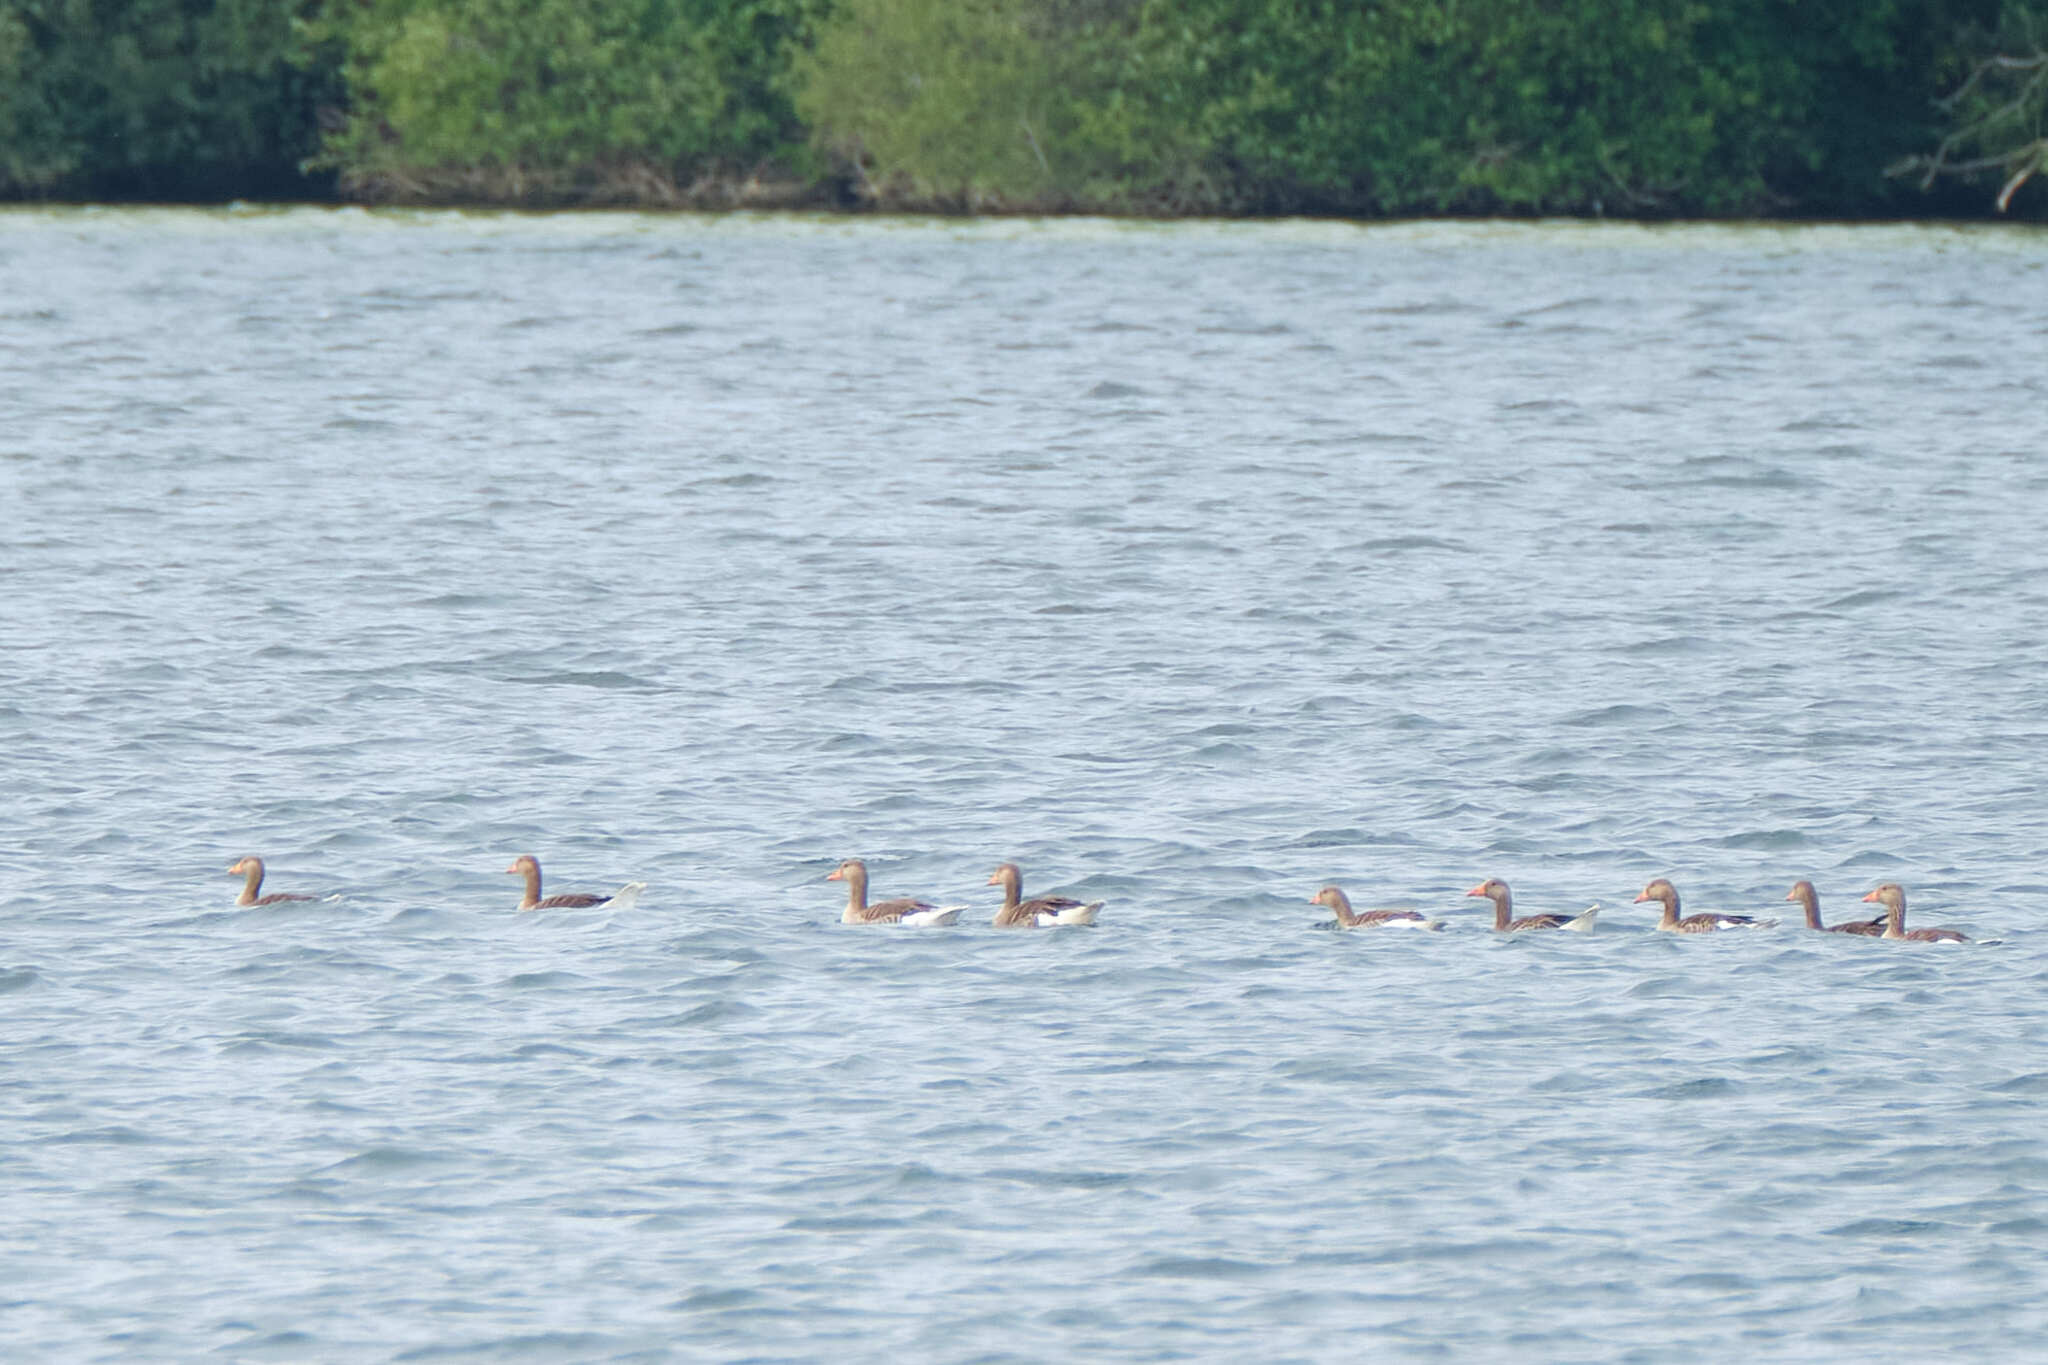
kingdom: Animalia
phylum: Chordata
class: Aves
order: Anseriformes
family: Anatidae
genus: Anser
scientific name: Anser anser
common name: Greylag goose
